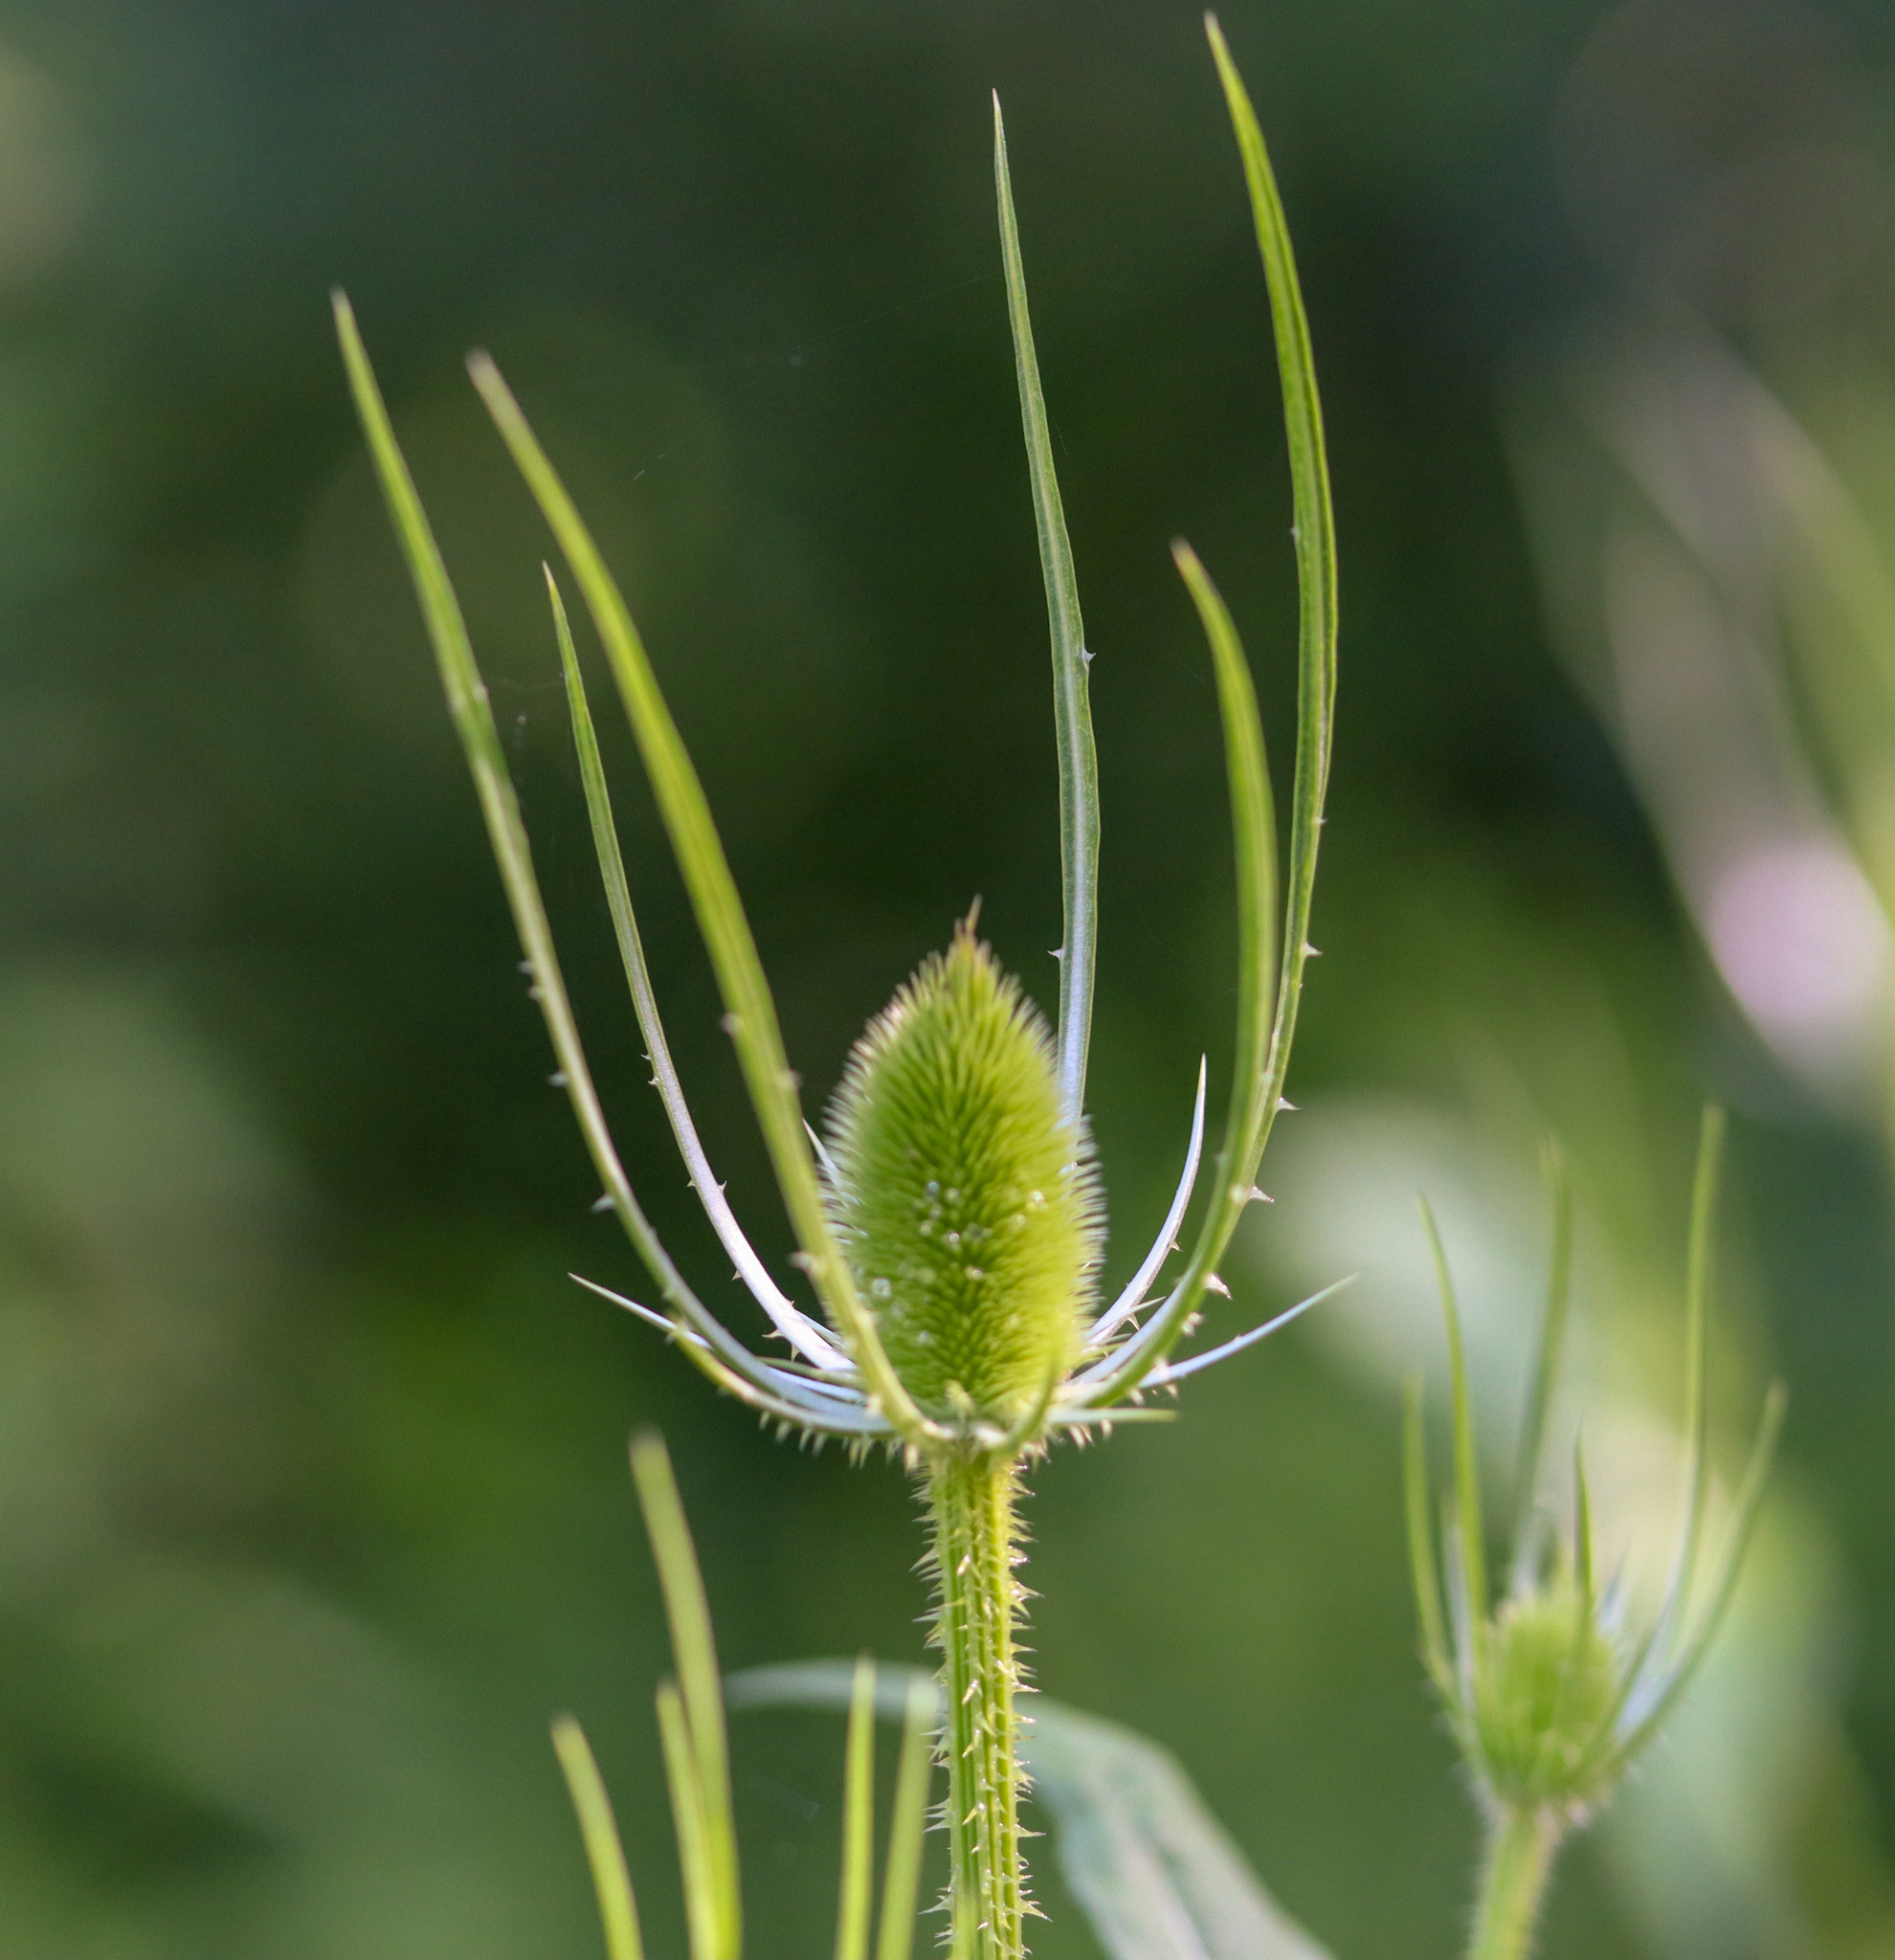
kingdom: Plantae
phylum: Tracheophyta
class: Magnoliopsida
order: Dipsacales
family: Caprifoliaceae
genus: Dipsacus
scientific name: Dipsacus fullonum
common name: Teasel
